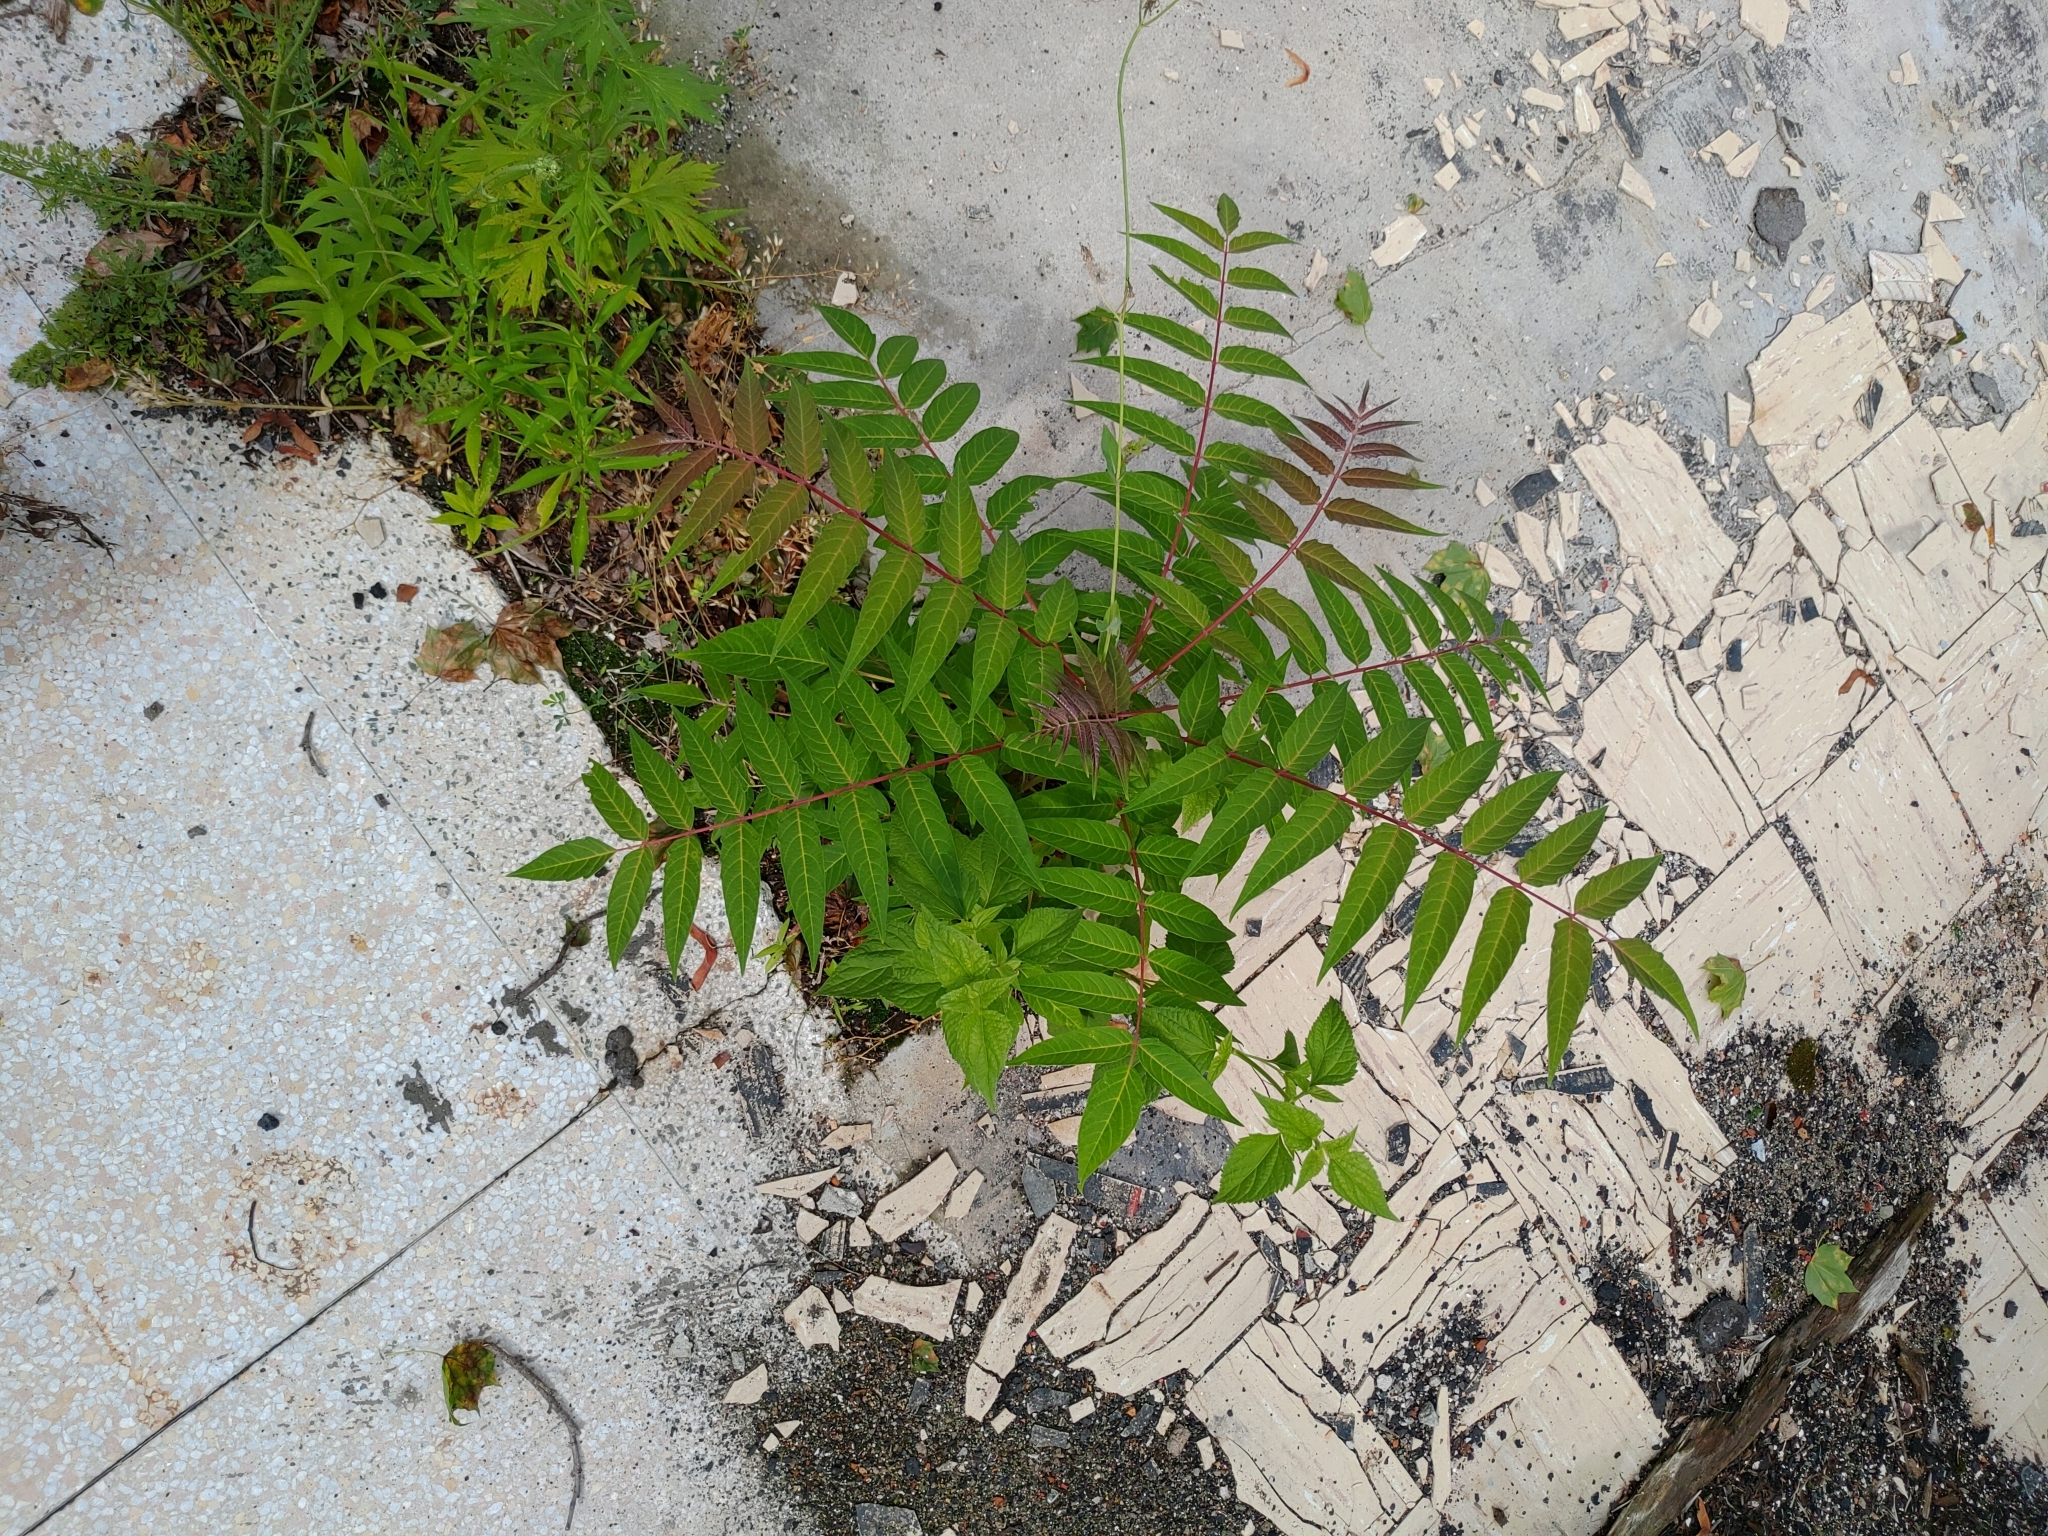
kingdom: Plantae
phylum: Tracheophyta
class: Magnoliopsida
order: Sapindales
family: Simaroubaceae
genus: Ailanthus
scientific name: Ailanthus altissima
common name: Tree-of-heaven
